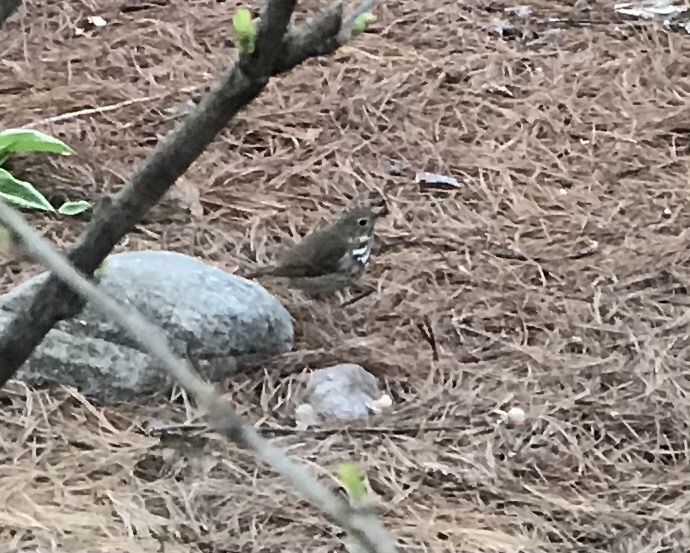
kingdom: Animalia
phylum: Chordata
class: Aves
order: Passeriformes
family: Turdidae
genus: Catharus
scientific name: Catharus guttatus
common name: Hermit thrush
